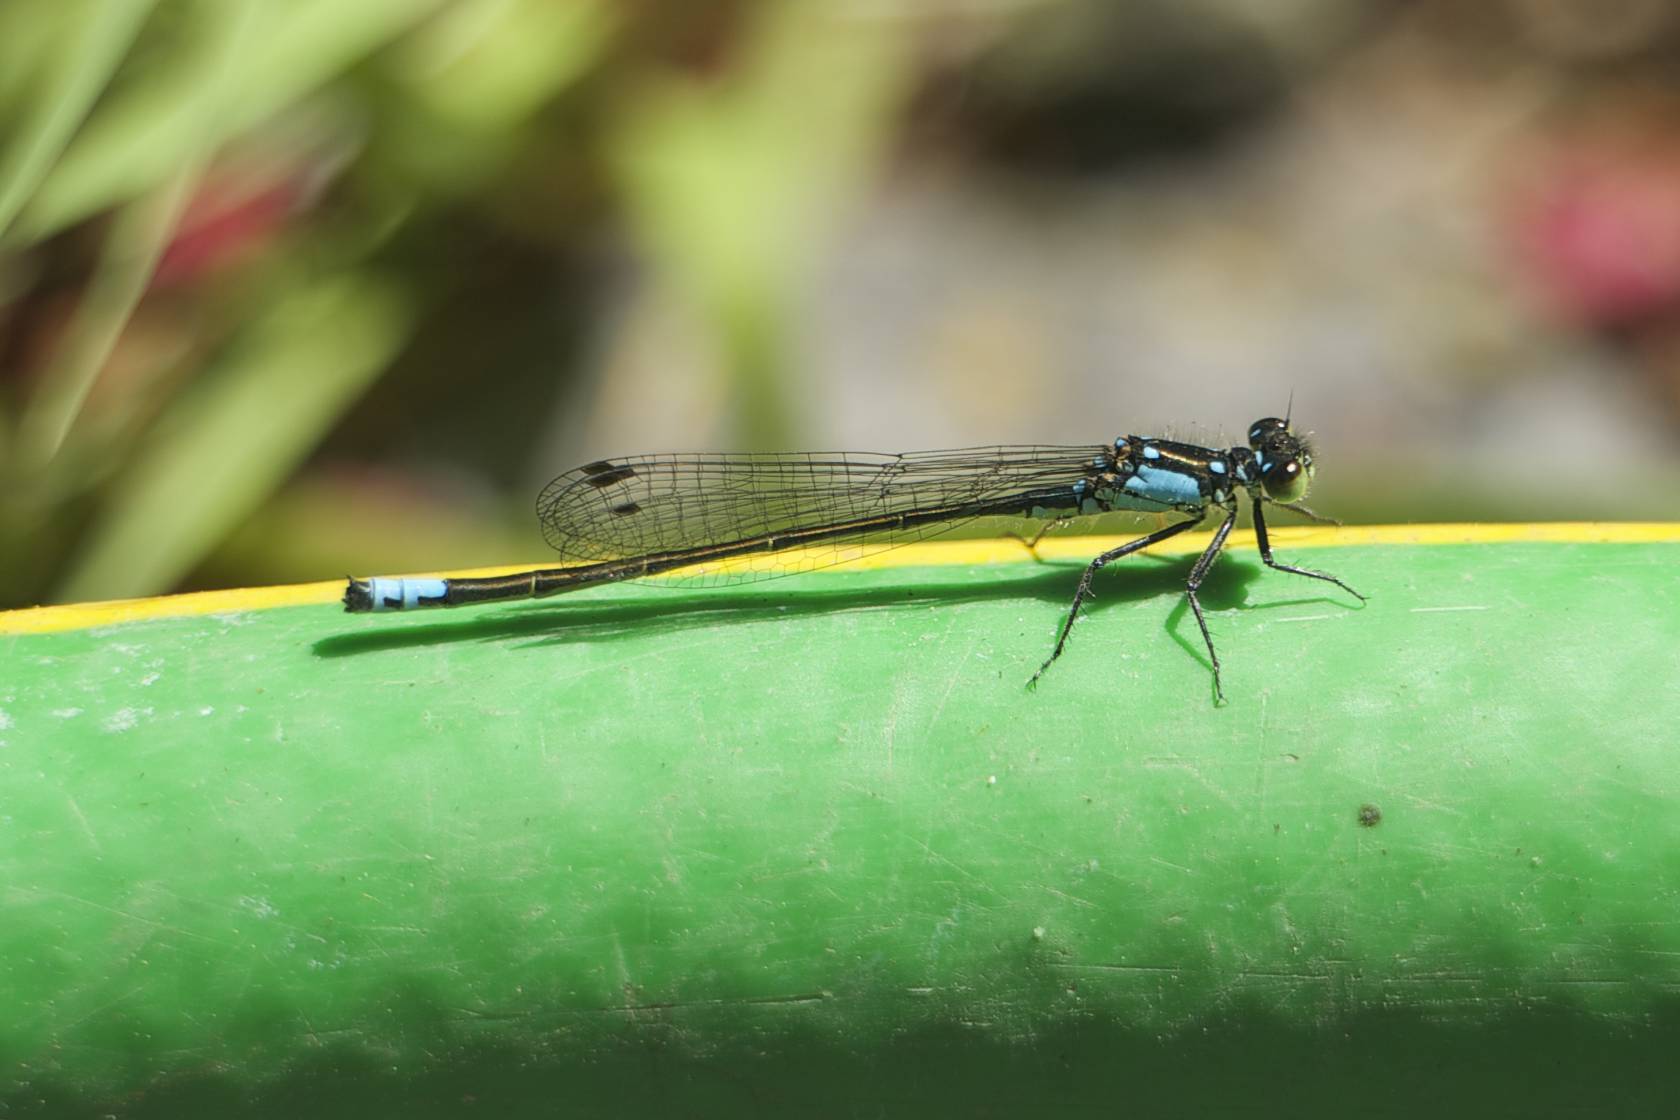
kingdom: Animalia
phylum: Arthropoda
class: Insecta
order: Odonata
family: Coenagrionidae
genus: Ischnura
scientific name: Ischnura cervula
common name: Pacific forktail
